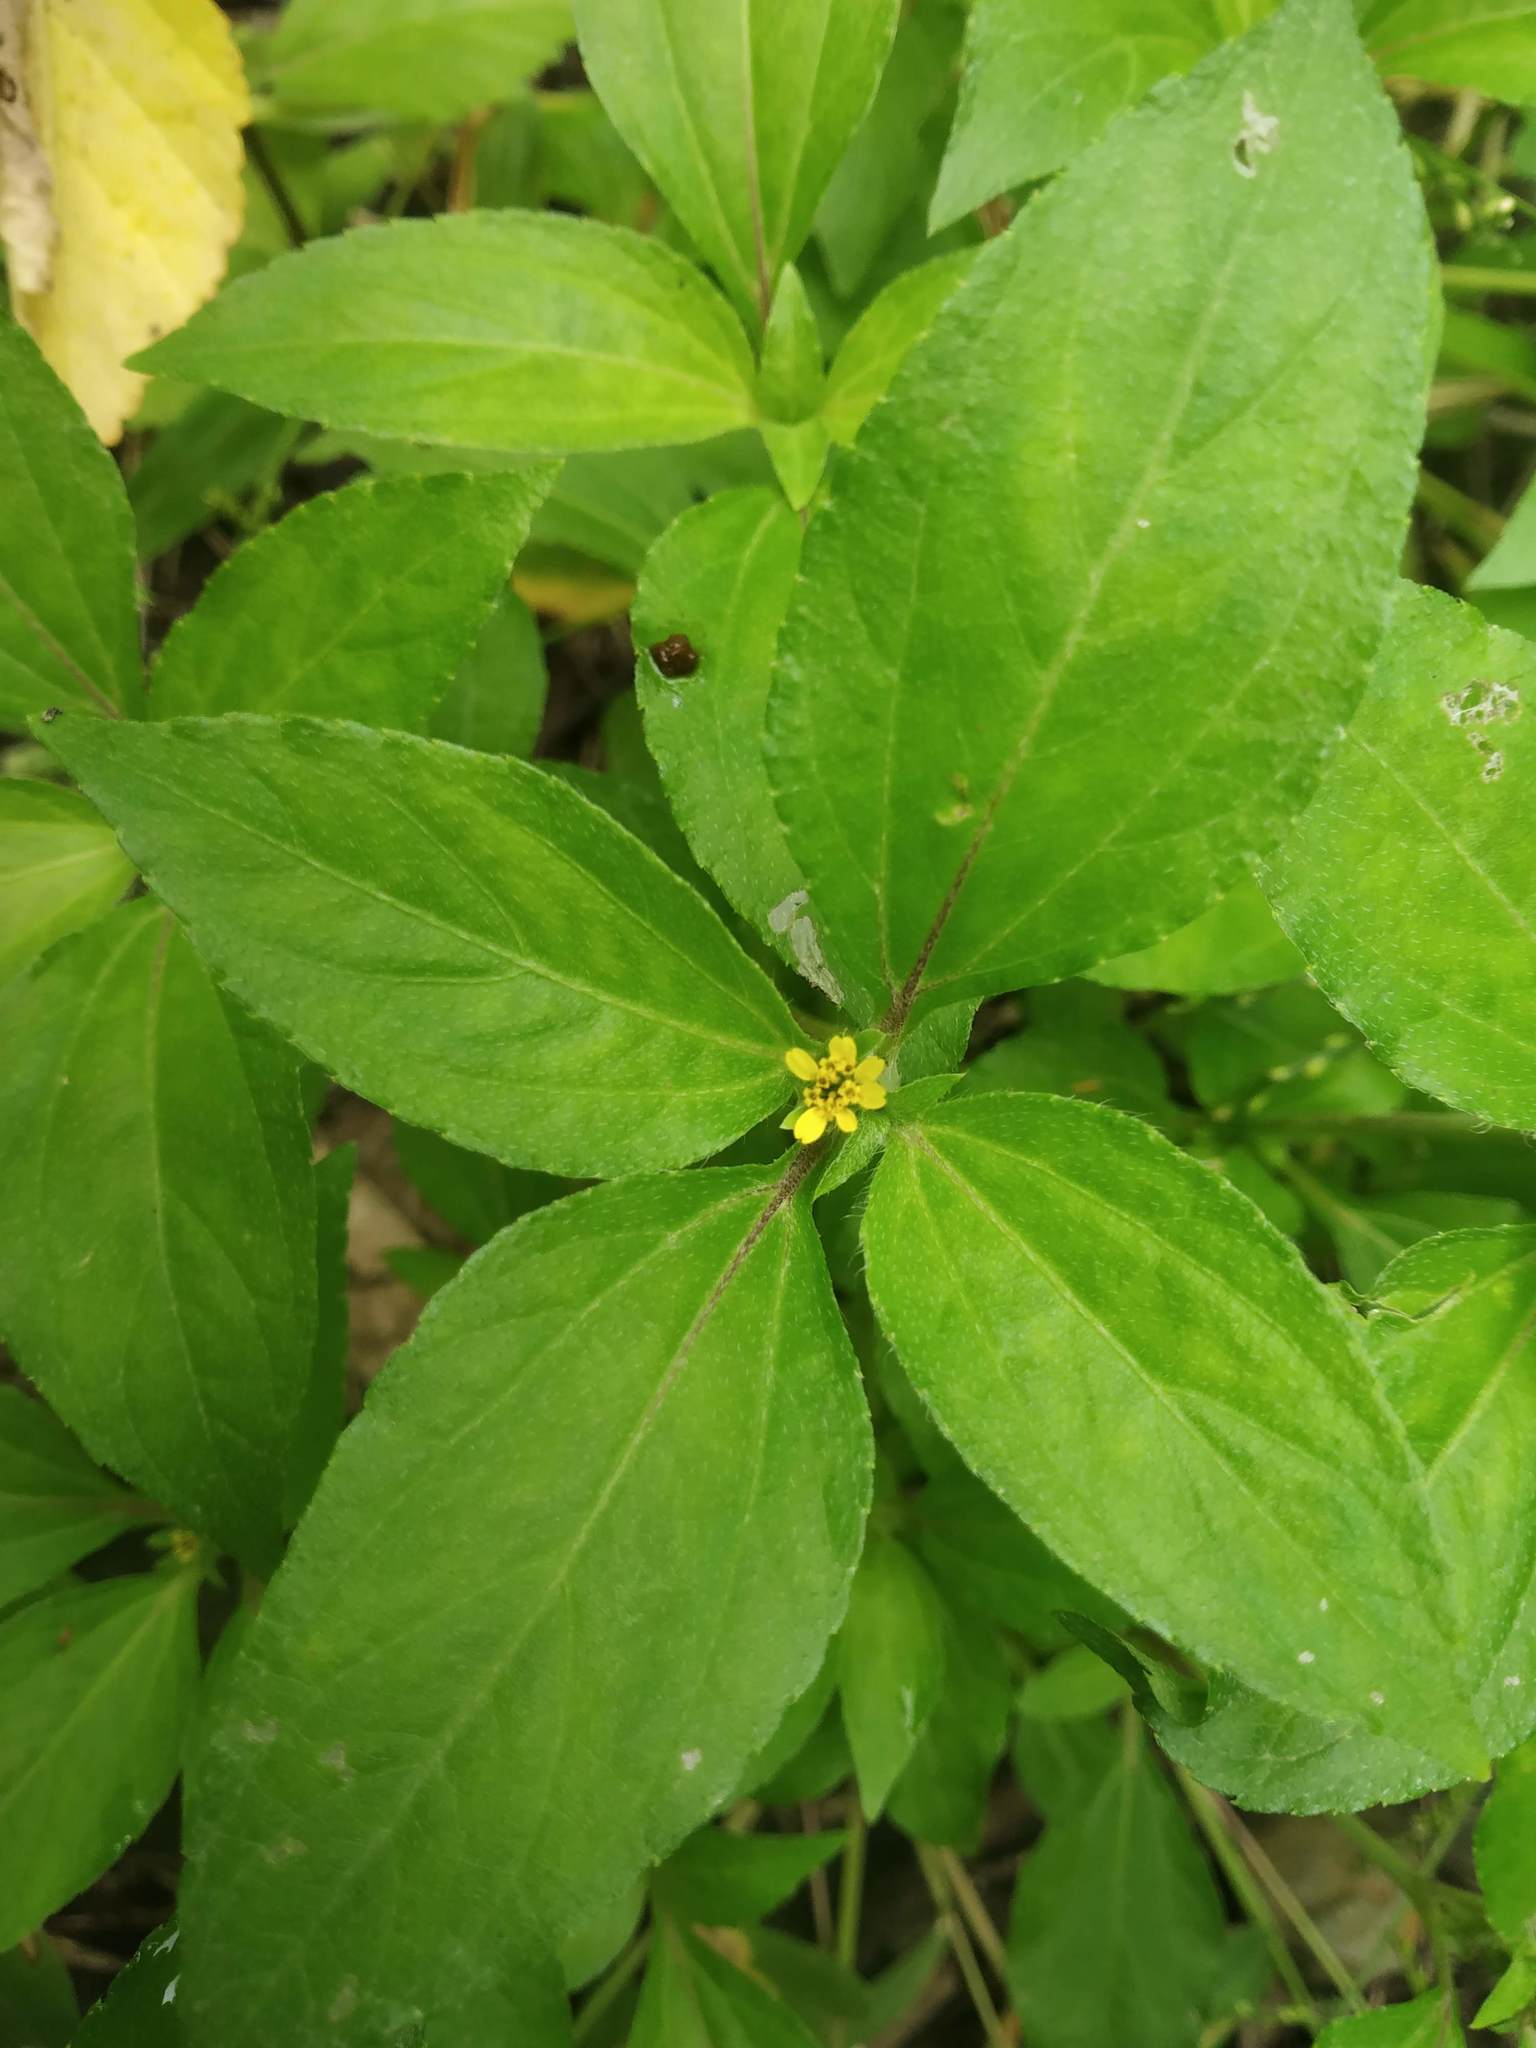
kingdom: Plantae
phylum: Tracheophyta
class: Magnoliopsida
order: Asterales
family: Asteraceae
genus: Synedrella
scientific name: Synedrella nodiflora
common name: Nodeweed
